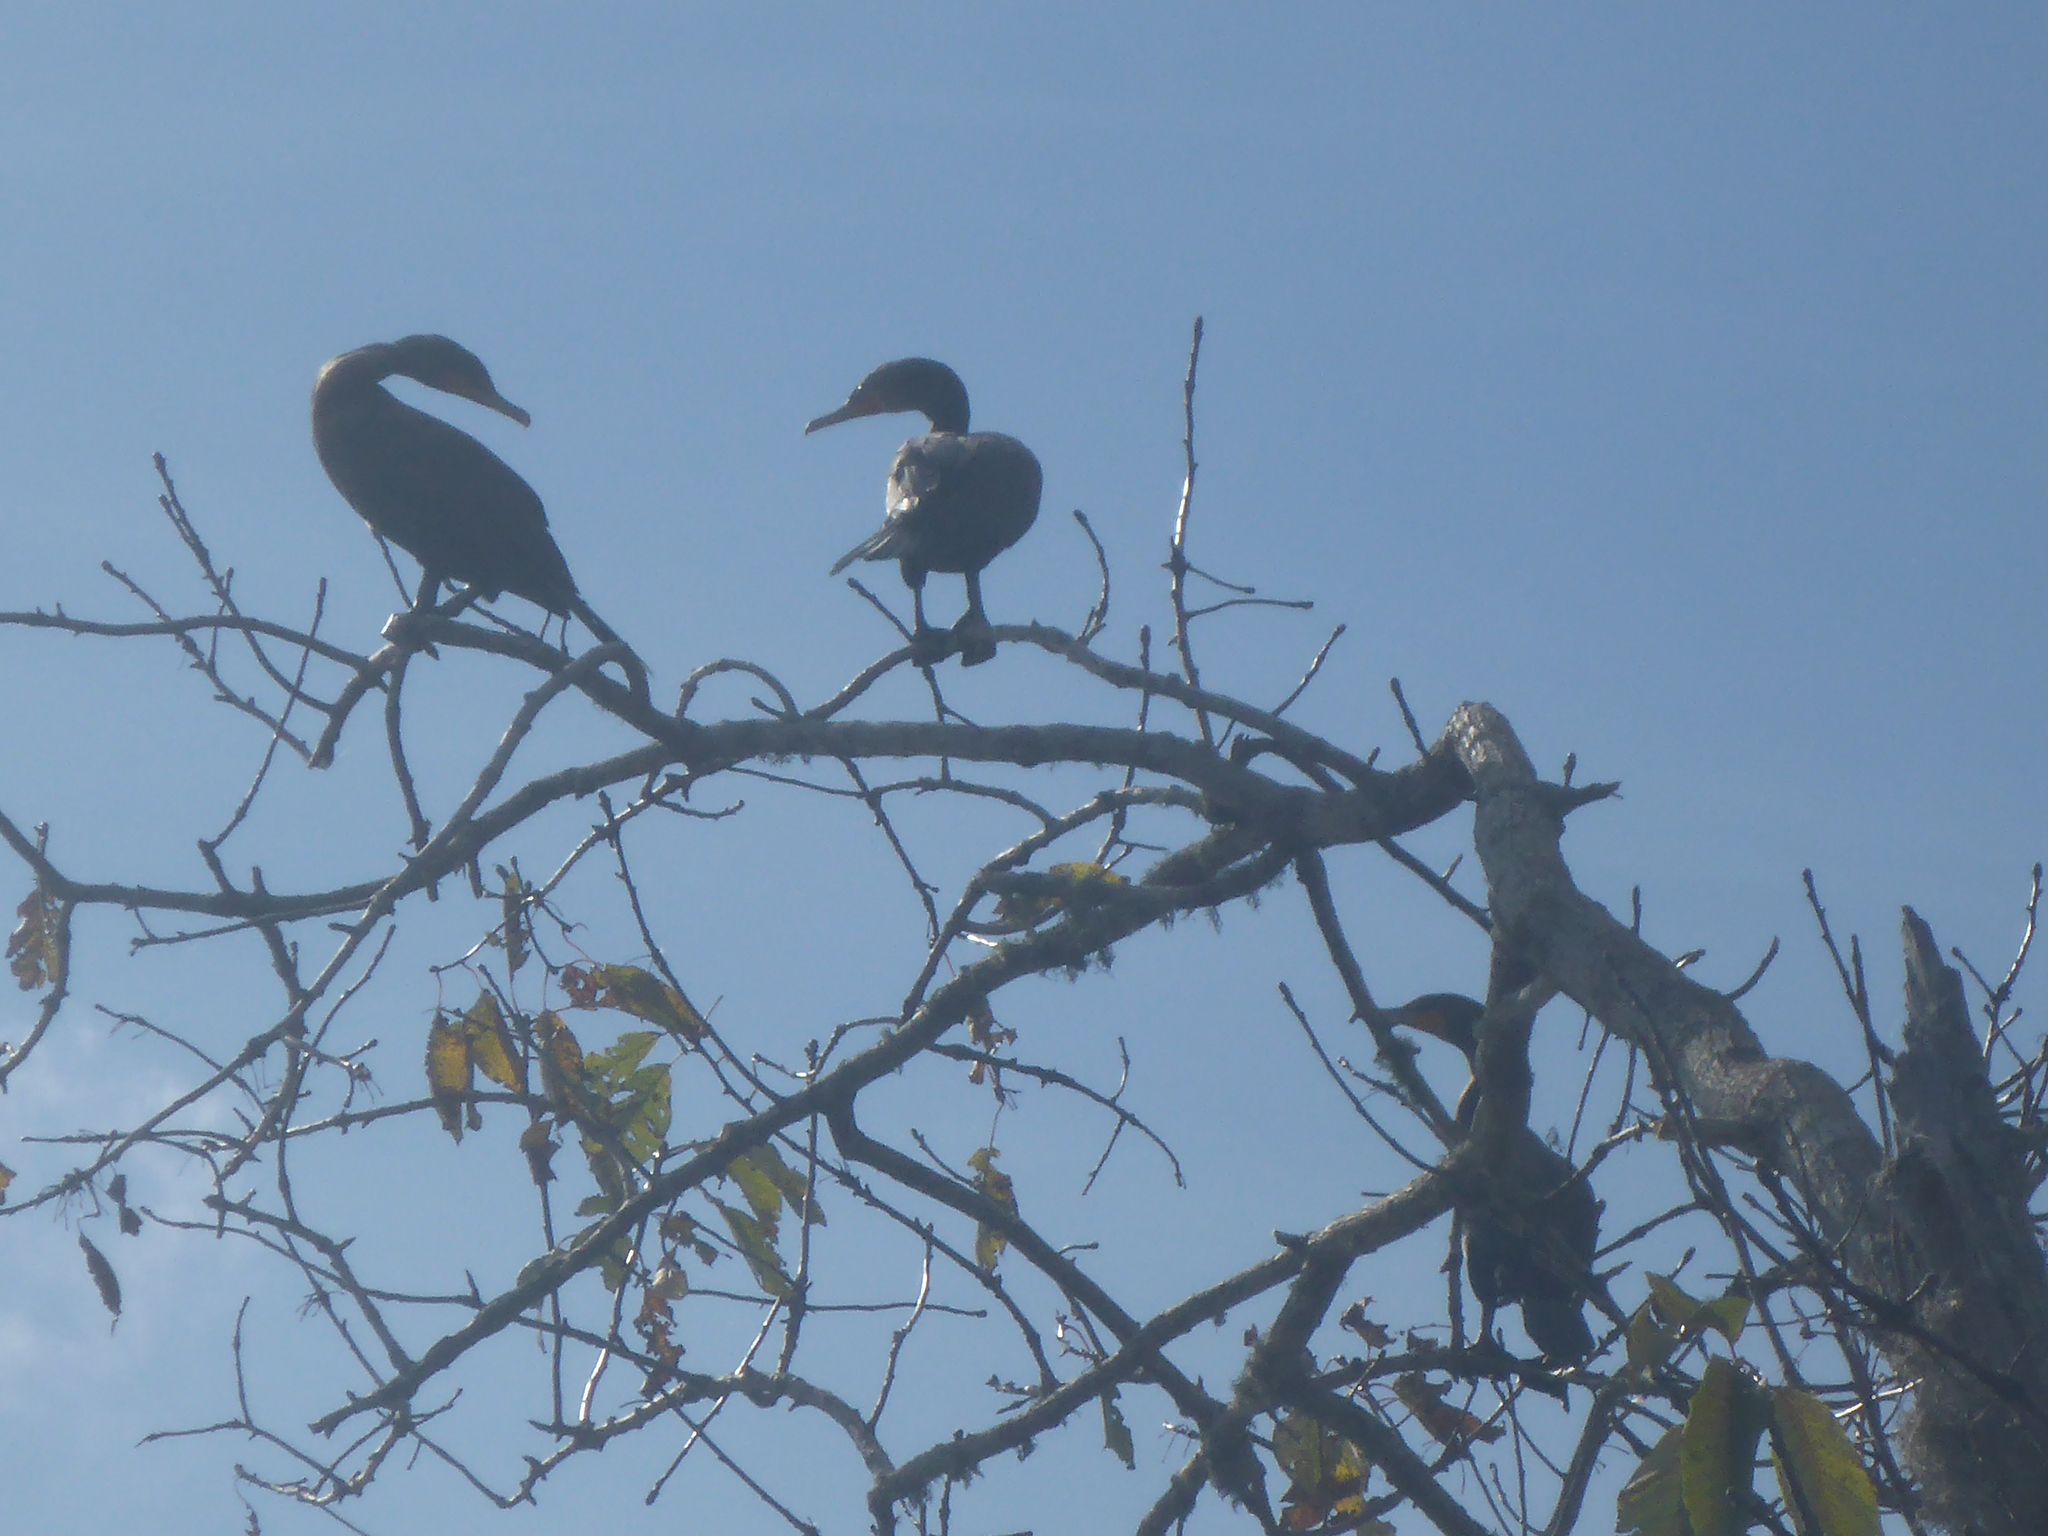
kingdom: Animalia
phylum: Chordata
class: Aves
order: Suliformes
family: Phalacrocoracidae
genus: Phalacrocorax
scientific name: Phalacrocorax auritus
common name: Double-crested cormorant
